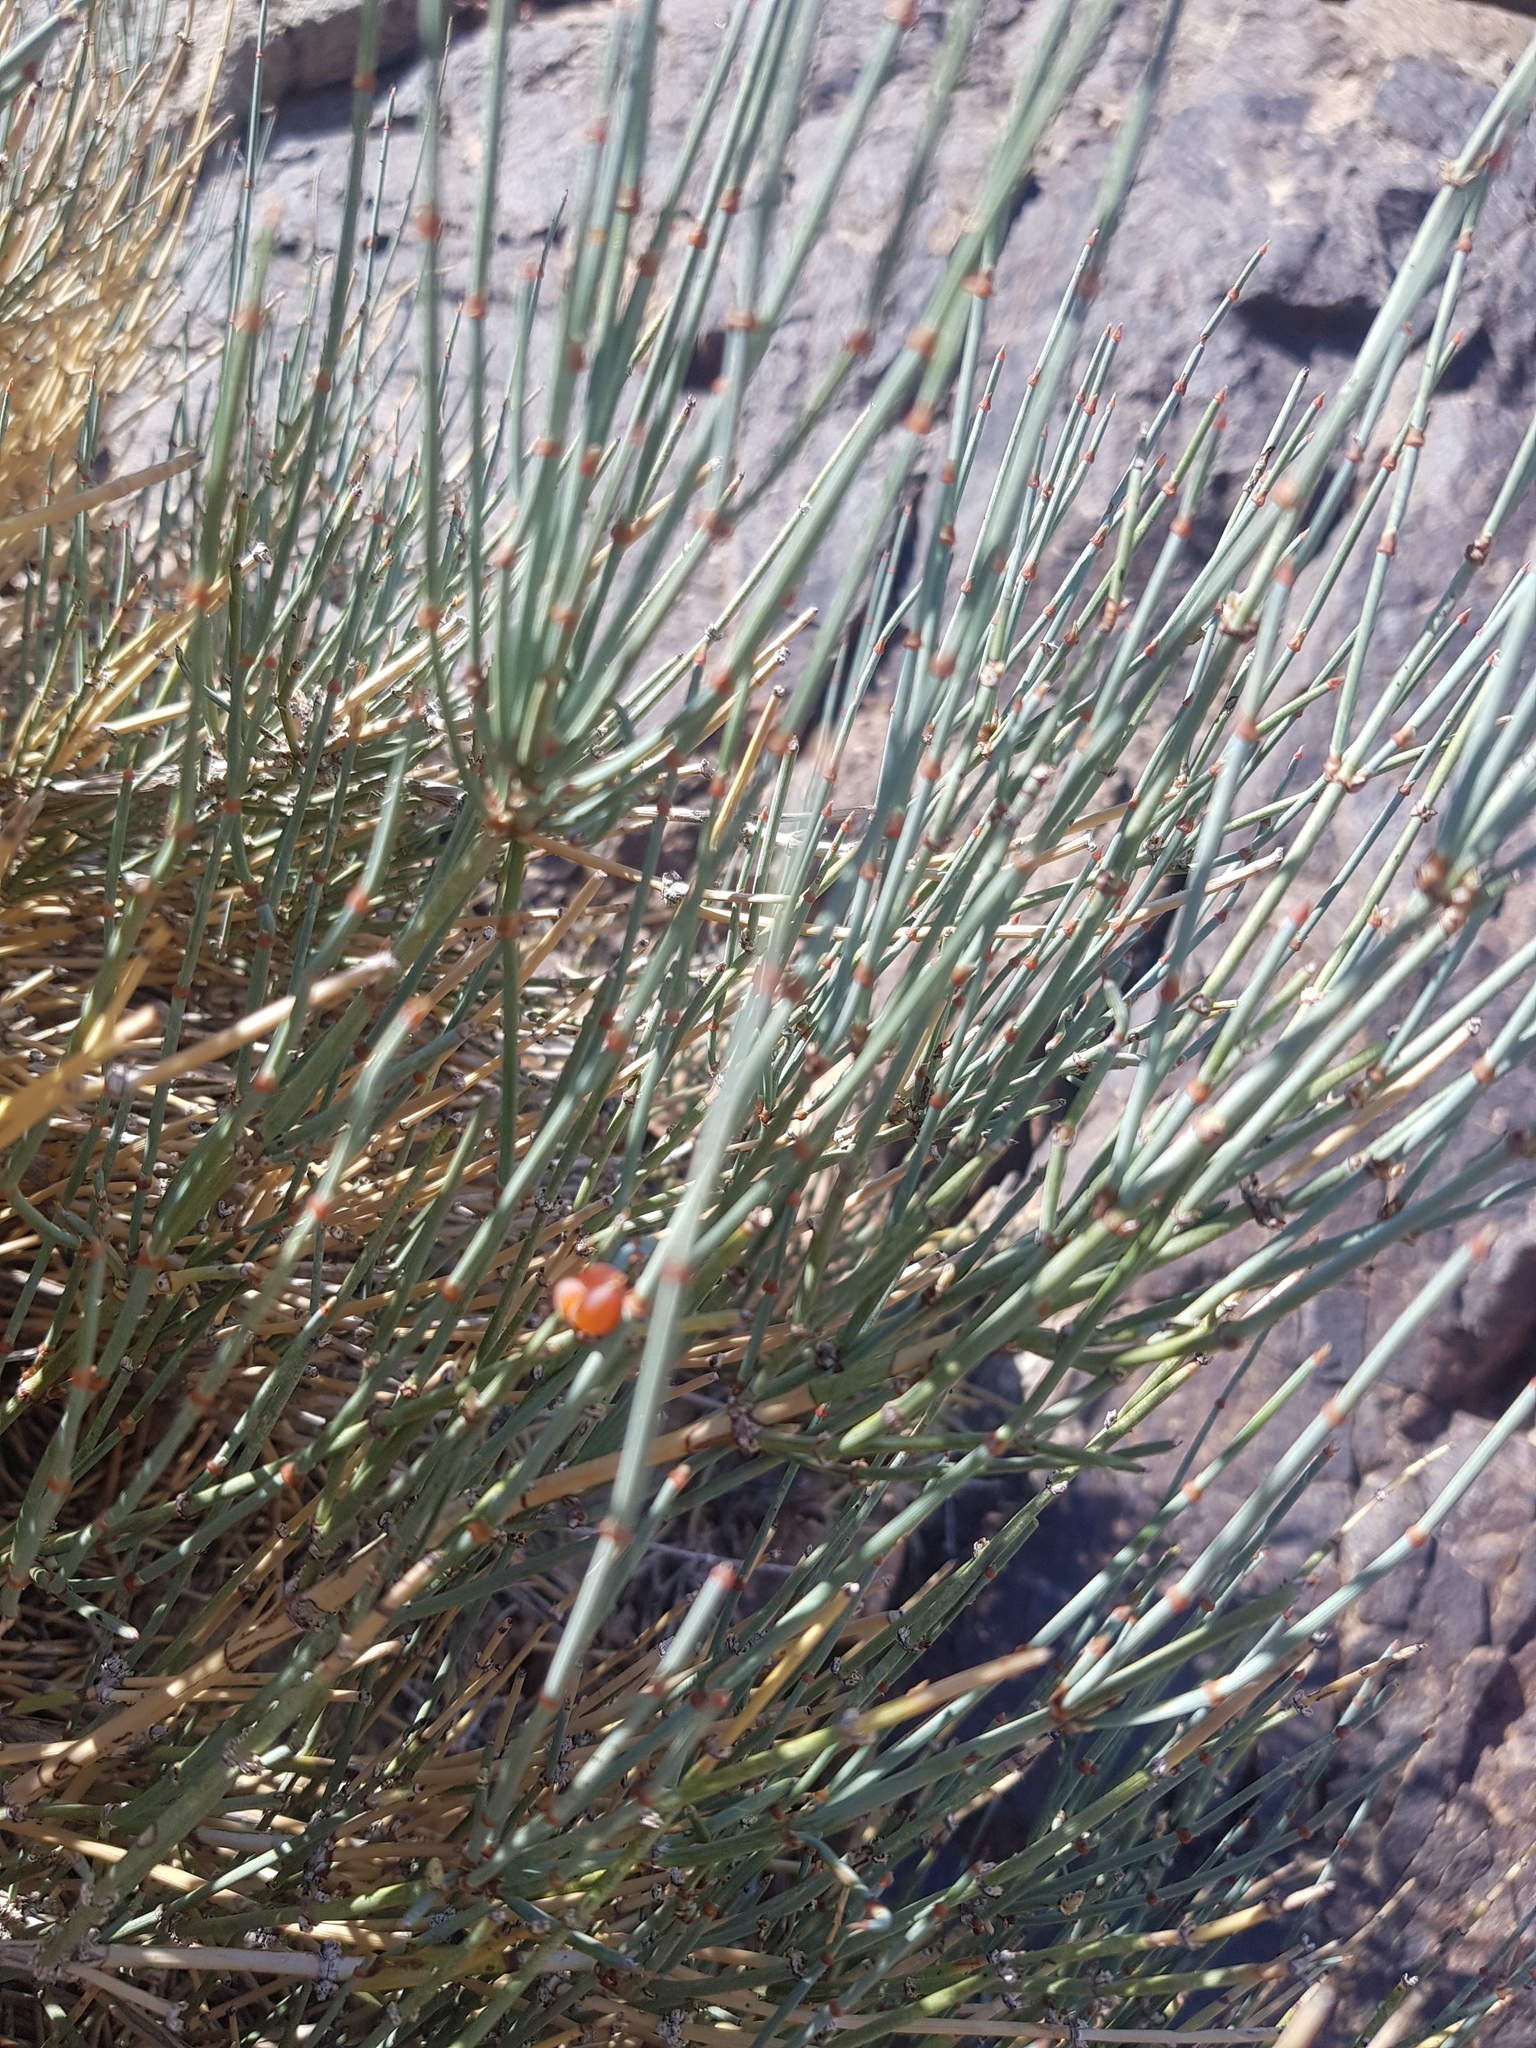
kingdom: Plantae
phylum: Tracheophyta
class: Gnetopsida
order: Ephedrales
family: Ephedraceae
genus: Ephedra
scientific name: Ephedra equisetina
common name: Mongolian ephedra
